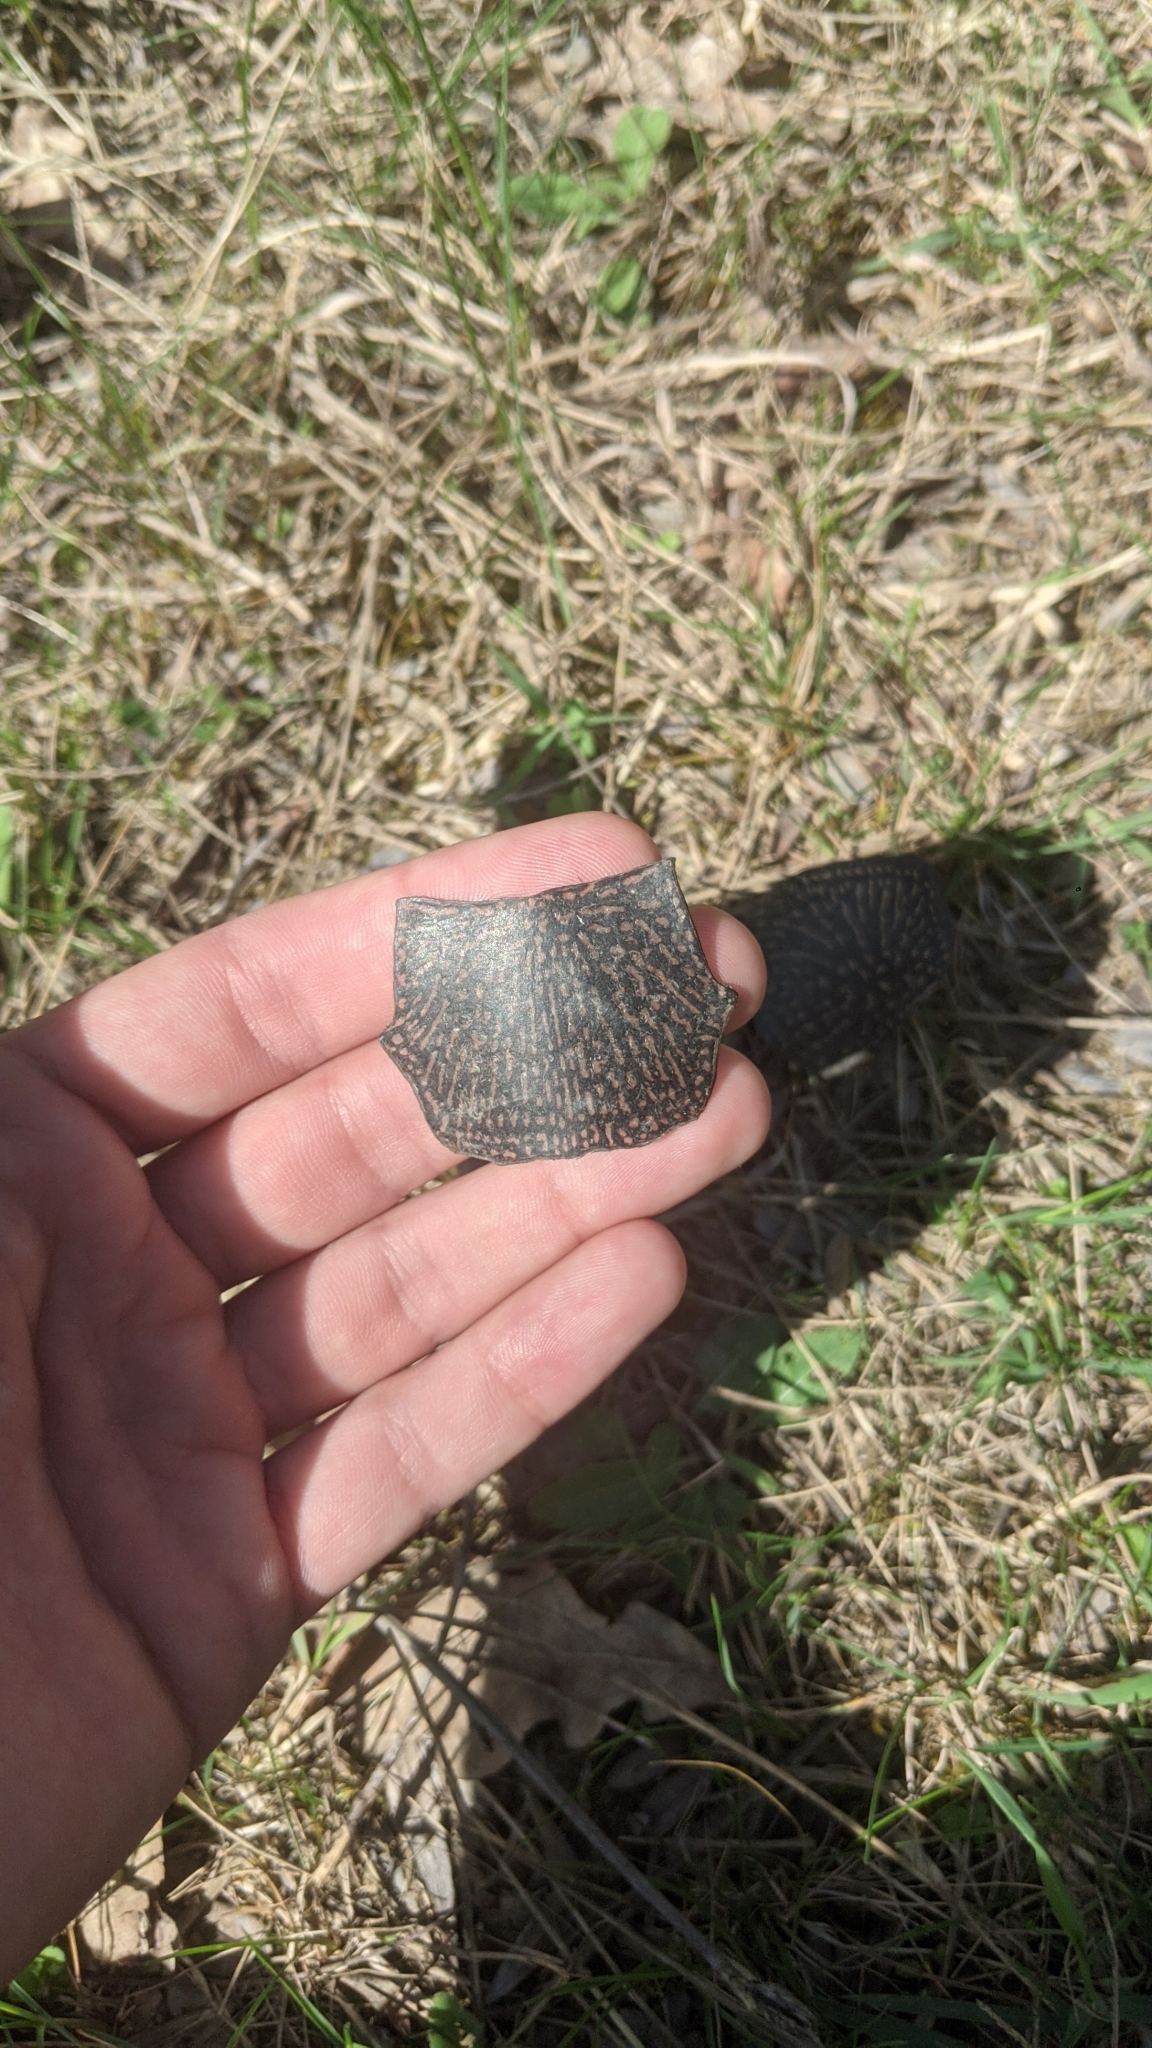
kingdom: Animalia
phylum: Chordata
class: Testudines
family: Emydidae
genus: Emys
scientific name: Emys orbicularis
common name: European pond turtle
